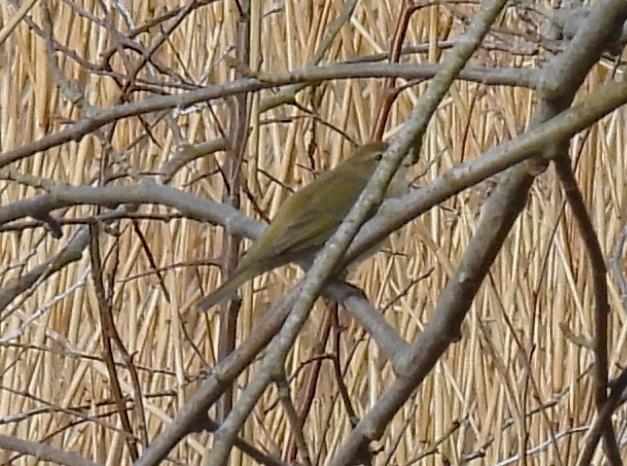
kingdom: Animalia
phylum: Chordata
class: Aves
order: Passeriformes
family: Phylloscopidae
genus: Phylloscopus
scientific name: Phylloscopus collybita
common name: Common chiffchaff
